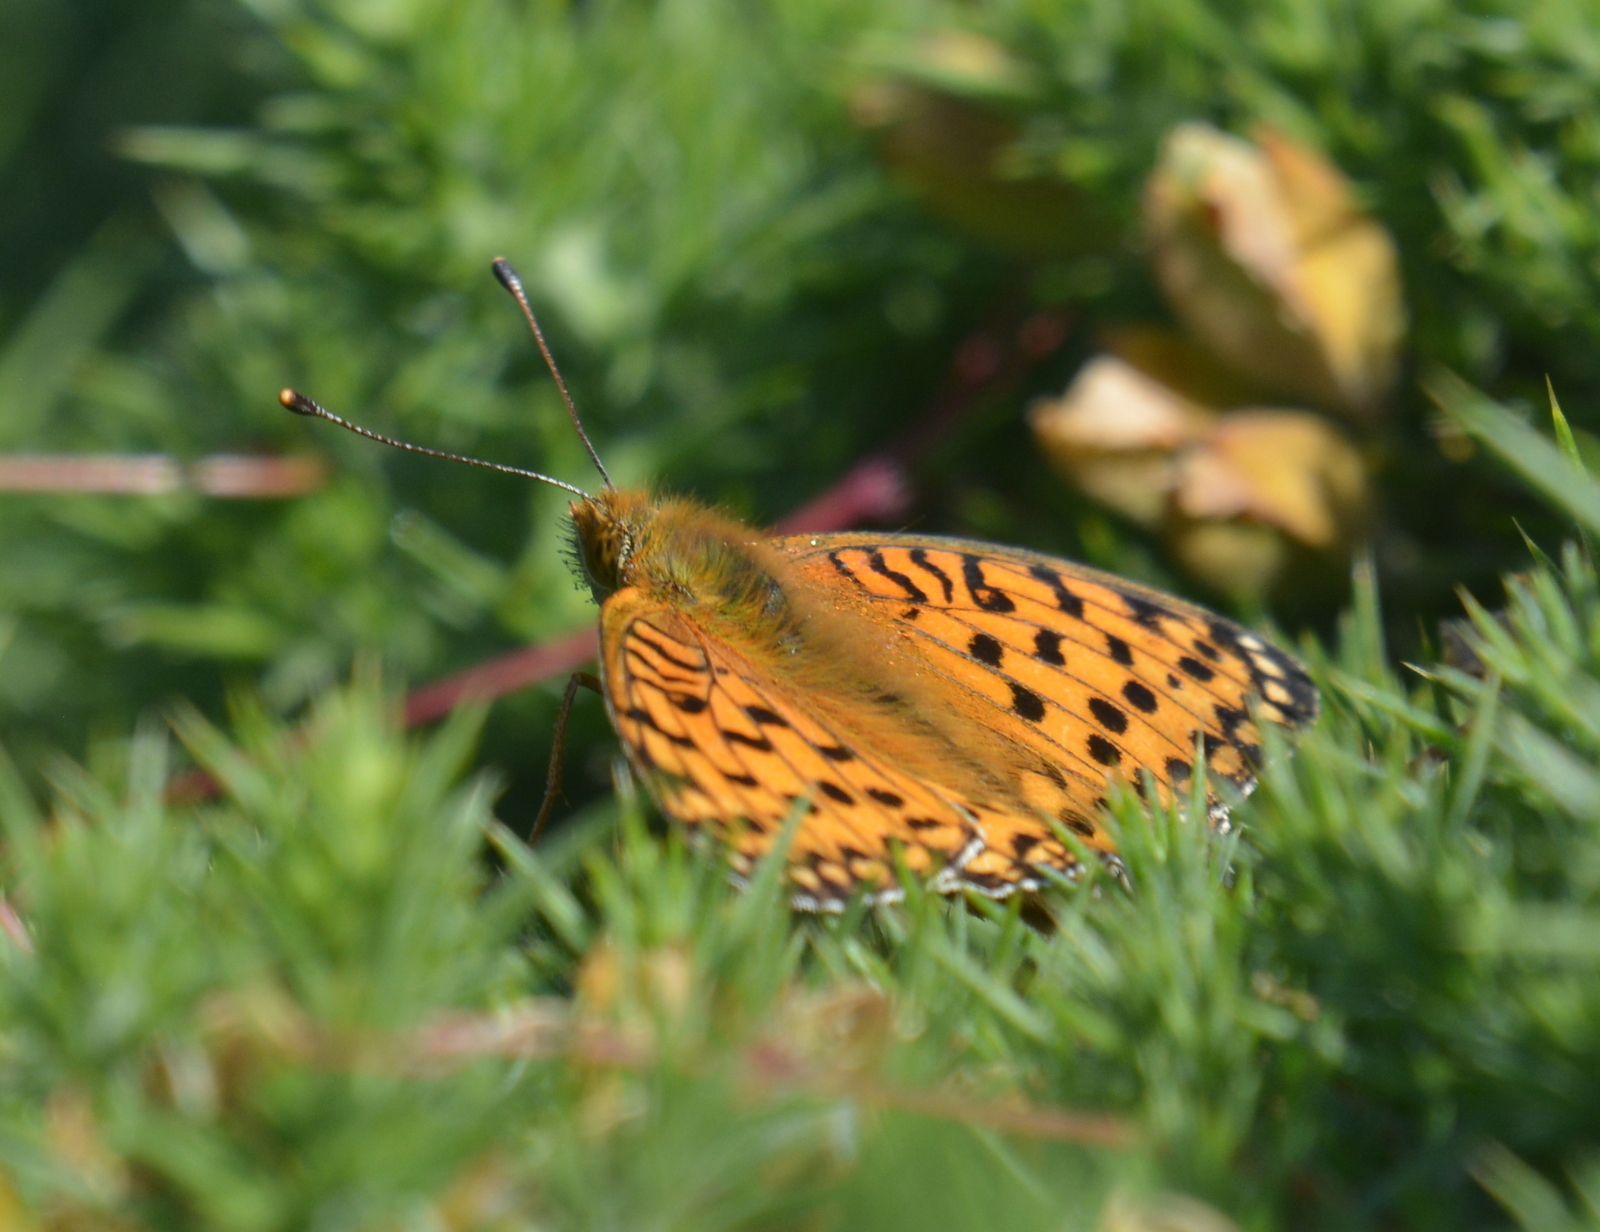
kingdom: Animalia
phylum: Arthropoda
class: Insecta
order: Lepidoptera
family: Nymphalidae
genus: Speyeria
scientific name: Speyeria aglaja
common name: Dark green fritillary
